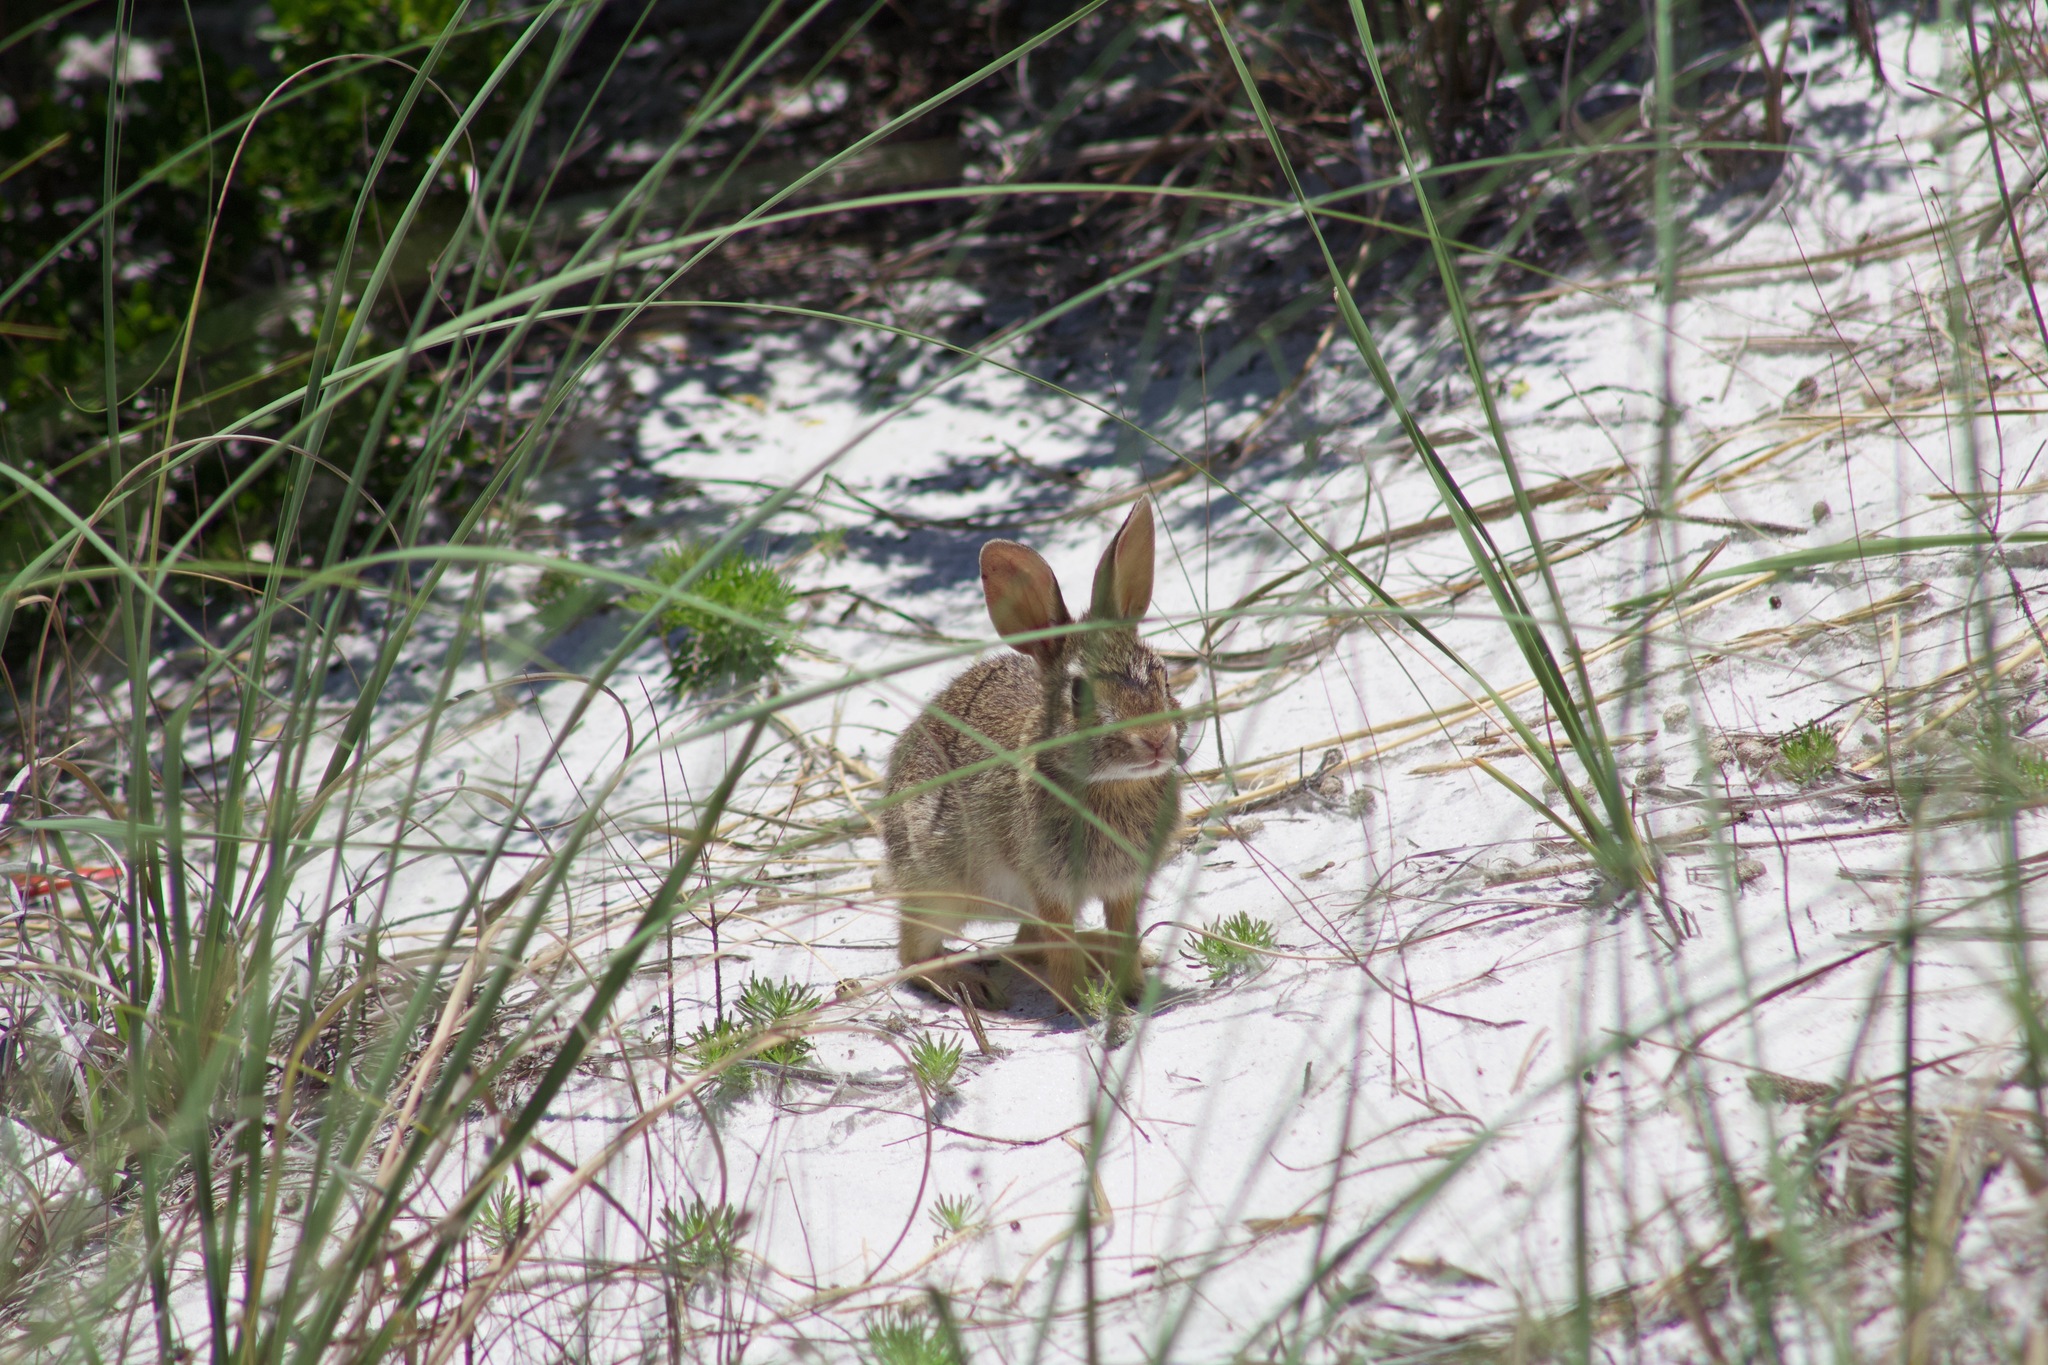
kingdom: Animalia
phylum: Chordata
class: Mammalia
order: Lagomorpha
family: Leporidae
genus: Sylvilagus
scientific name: Sylvilagus aquaticus
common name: Swamp rabbit
